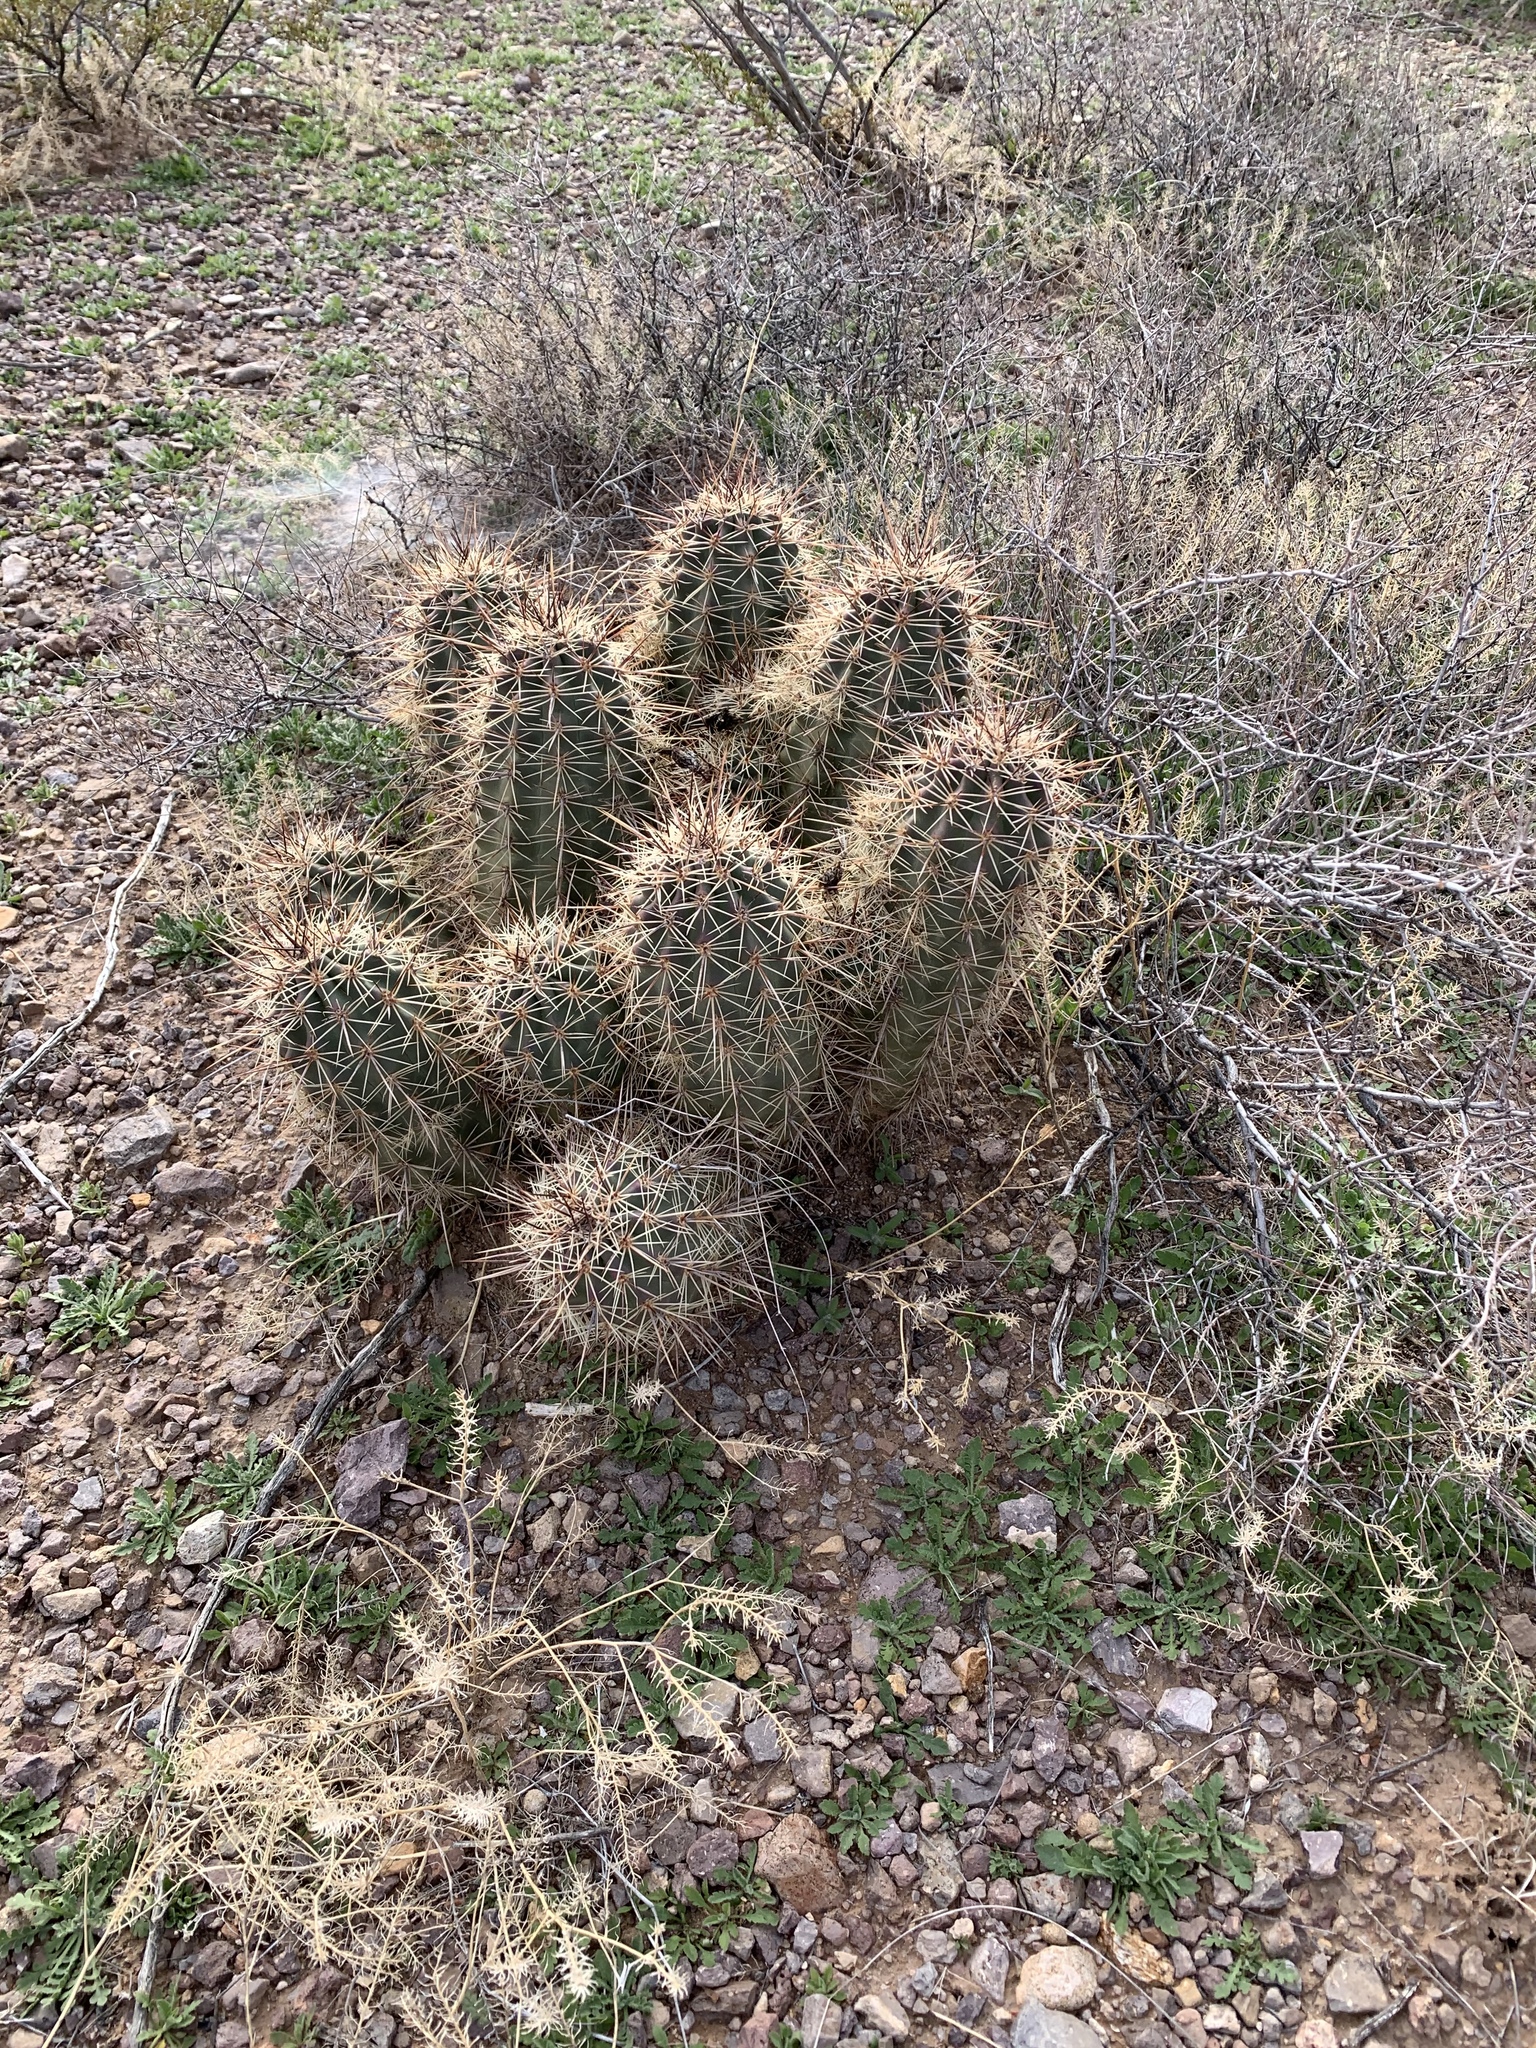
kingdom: Plantae
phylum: Tracheophyta
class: Magnoliopsida
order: Caryophyllales
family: Cactaceae
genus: Echinocereus
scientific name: Echinocereus coccineus
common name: Scarlet hedgehog cactus
